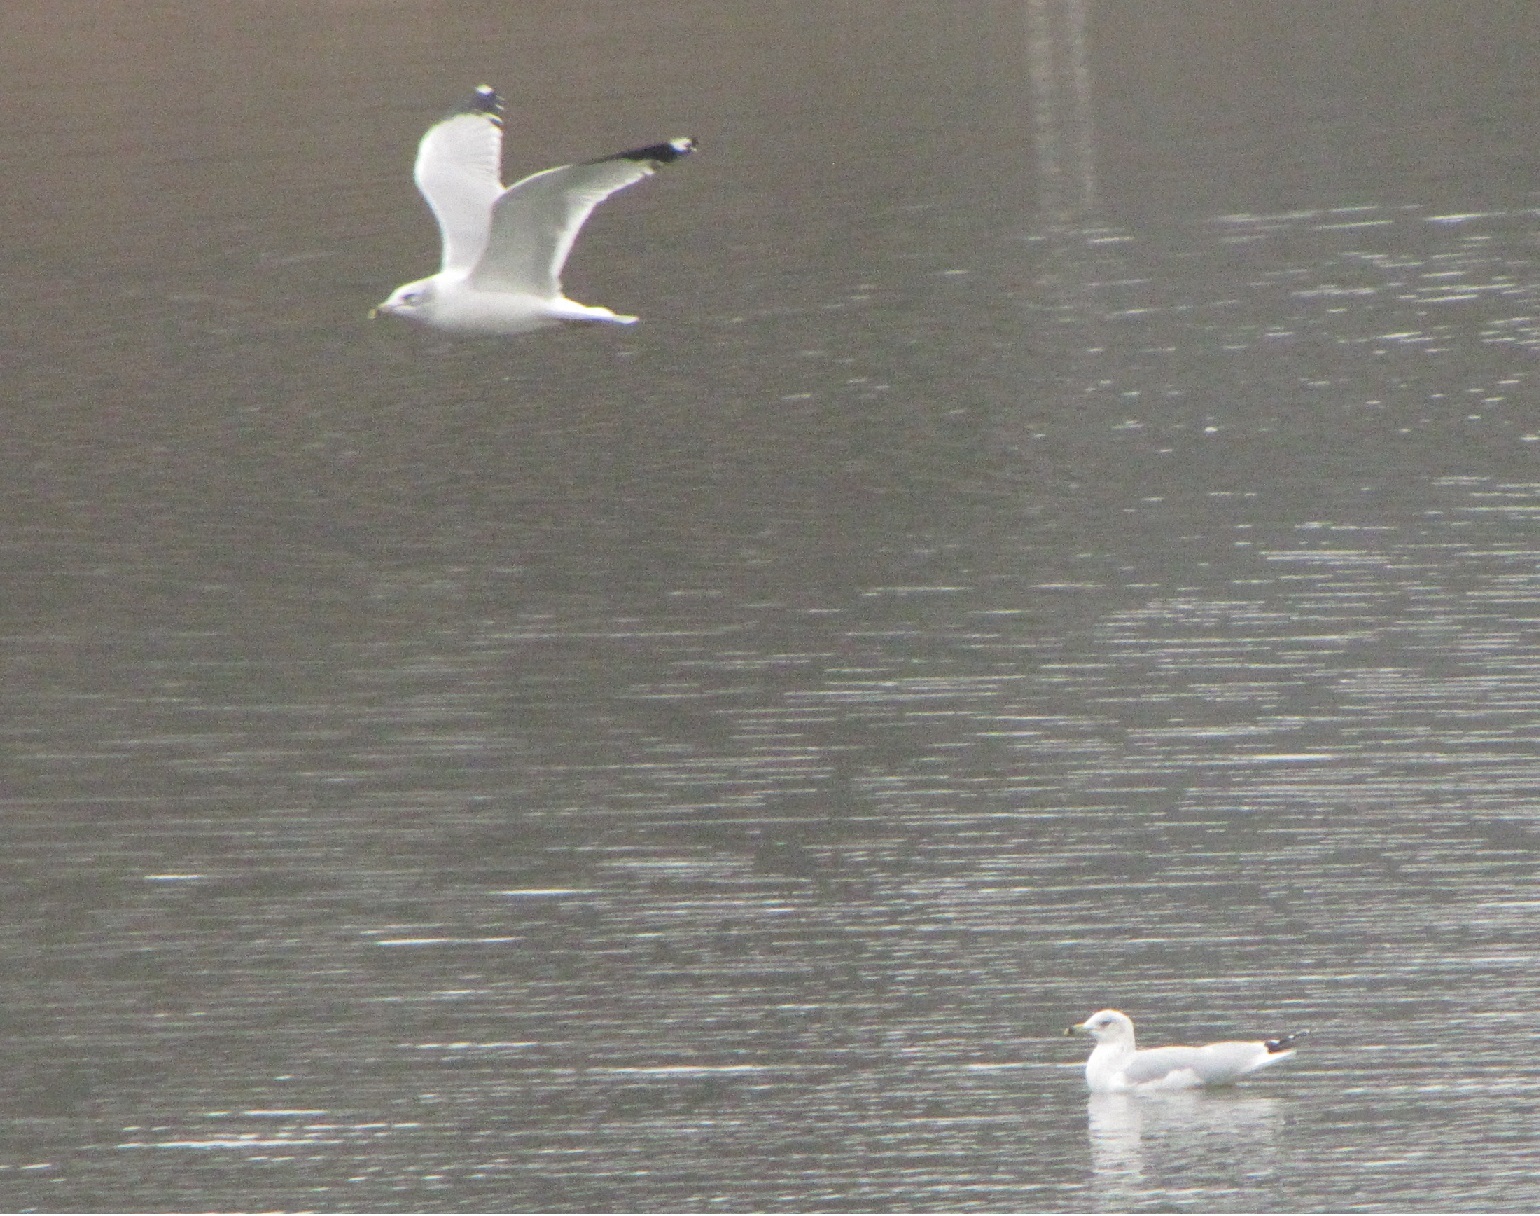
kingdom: Animalia
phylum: Chordata
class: Aves
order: Charadriiformes
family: Laridae
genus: Larus
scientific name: Larus delawarensis
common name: Ring-billed gull
